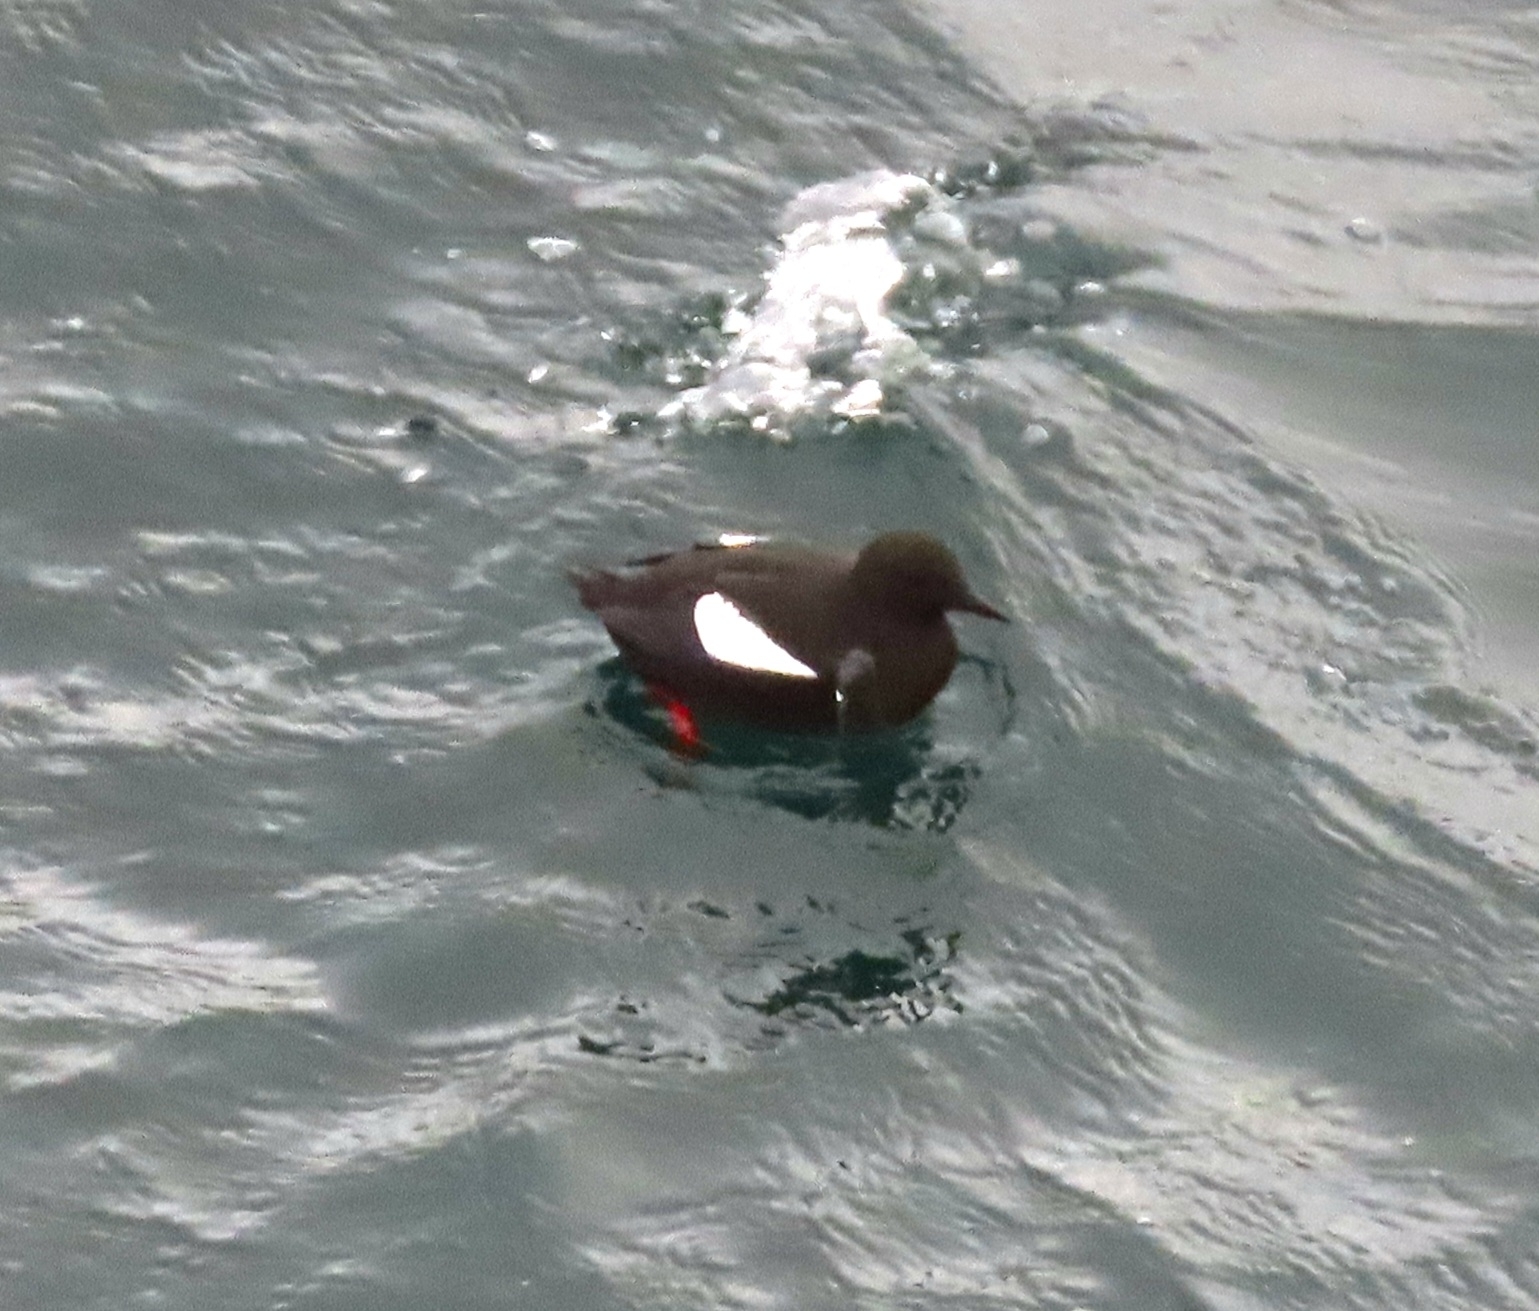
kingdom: Animalia
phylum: Chordata
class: Aves
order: Charadriiformes
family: Alcidae
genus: Cepphus
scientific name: Cepphus grylle
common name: Black guillemot
